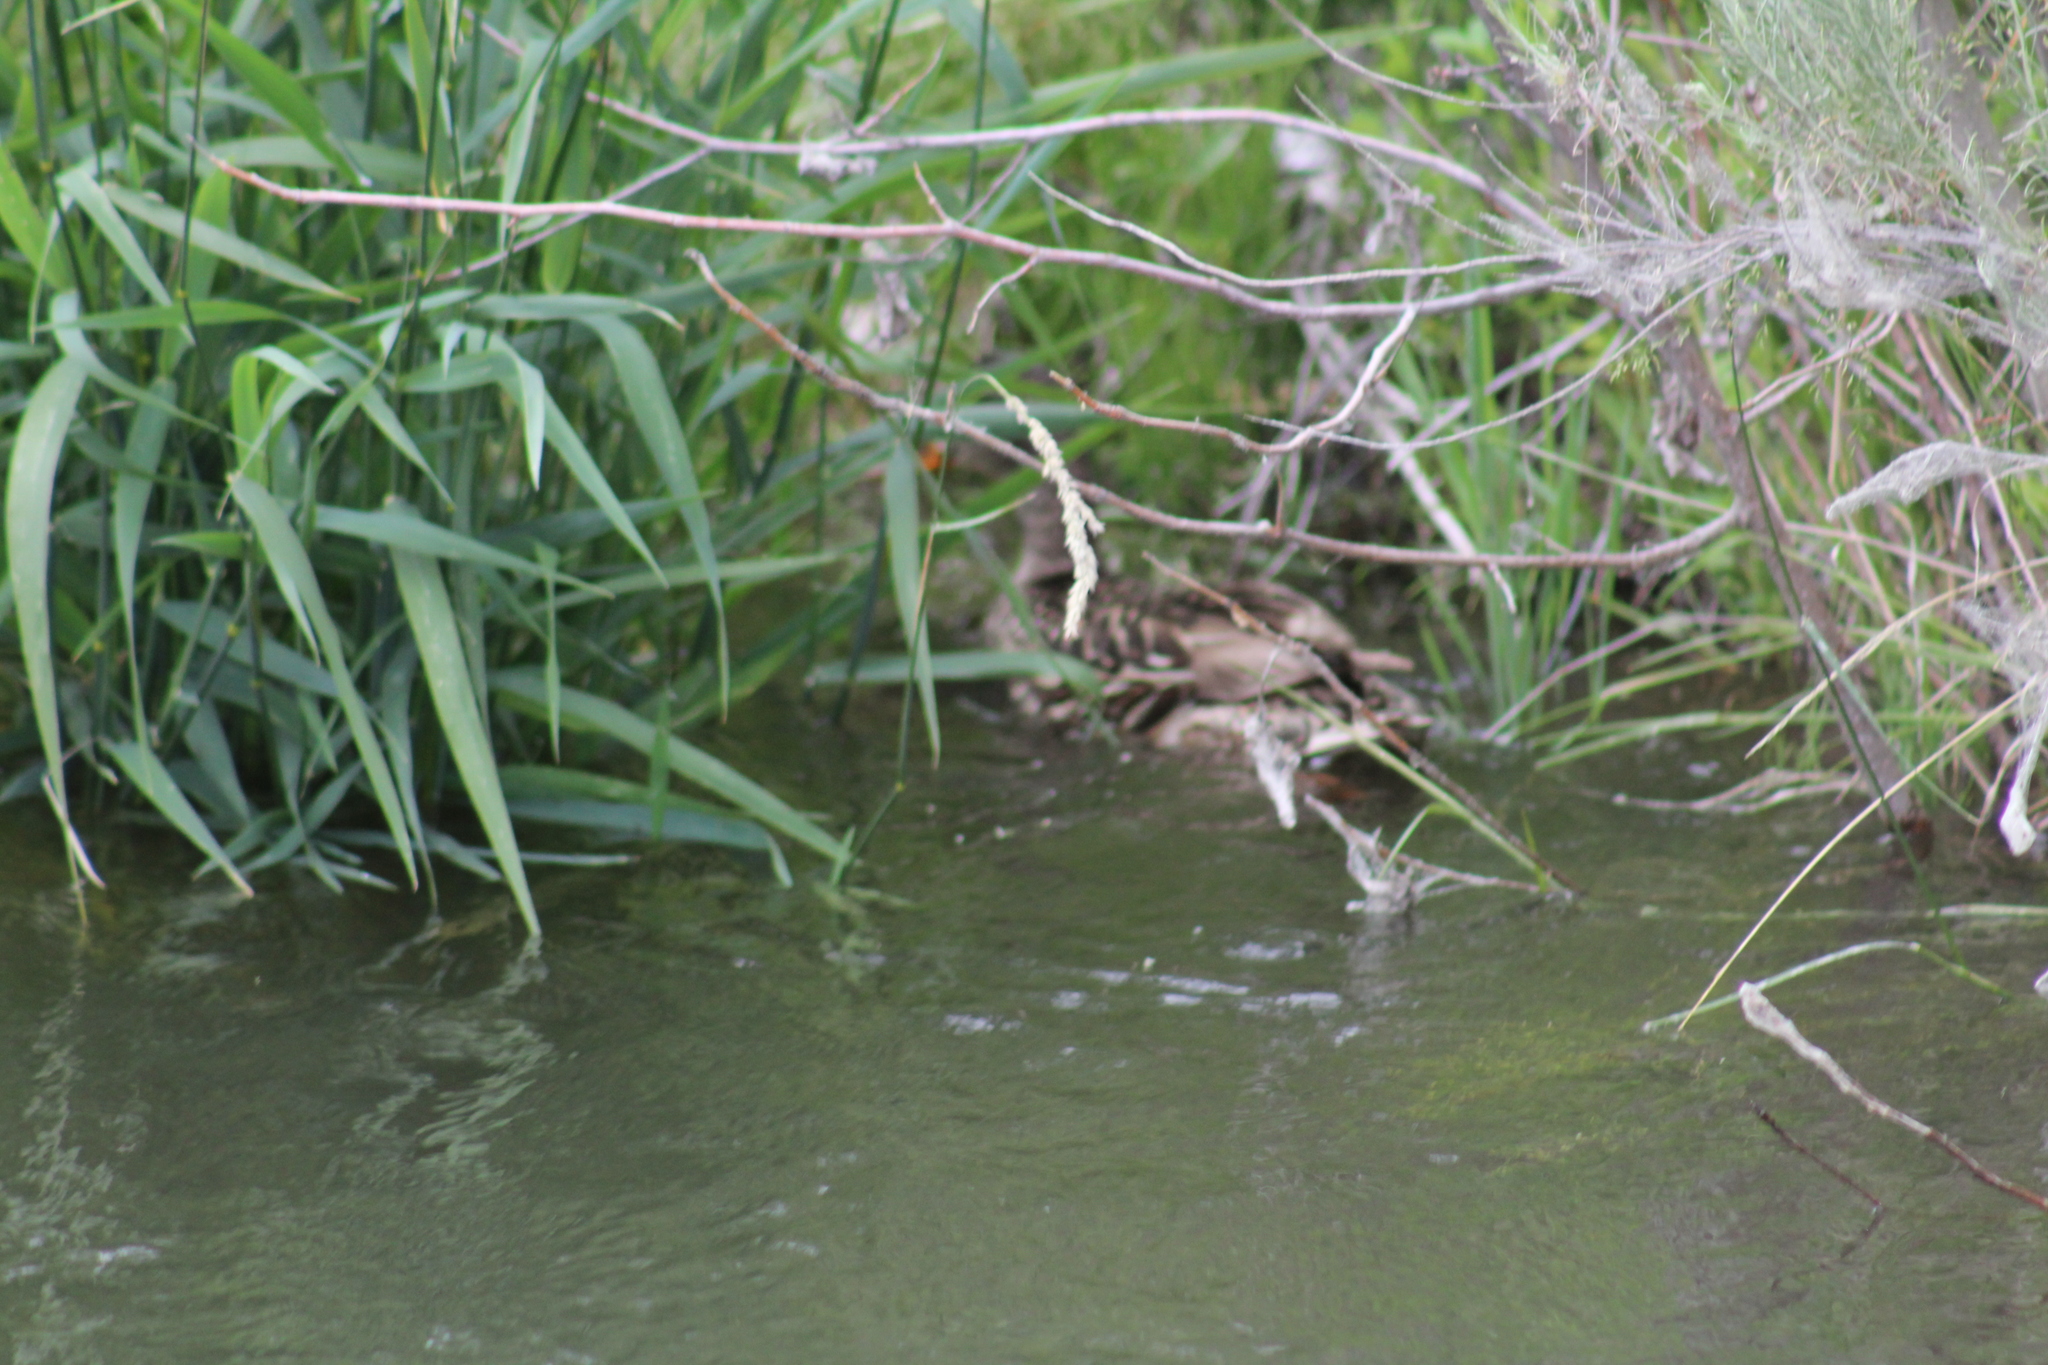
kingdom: Animalia
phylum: Chordata
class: Aves
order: Anseriformes
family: Anatidae
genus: Anas
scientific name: Anas platyrhynchos
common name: Mallard
